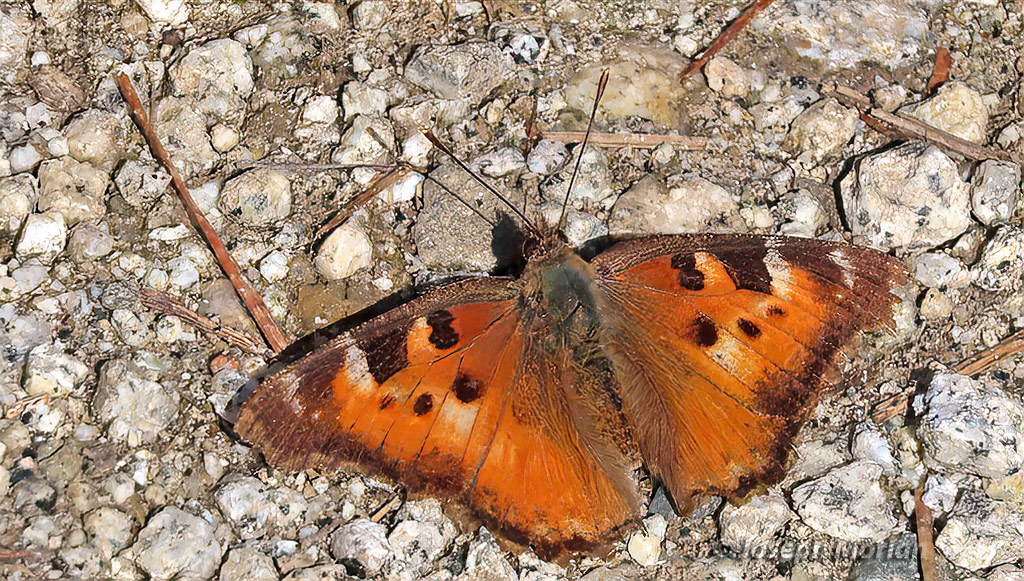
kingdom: Animalia
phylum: Arthropoda
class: Insecta
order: Lepidoptera
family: Nymphalidae
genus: Nymphalis
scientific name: Nymphalis californica
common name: California tortoiseshell
